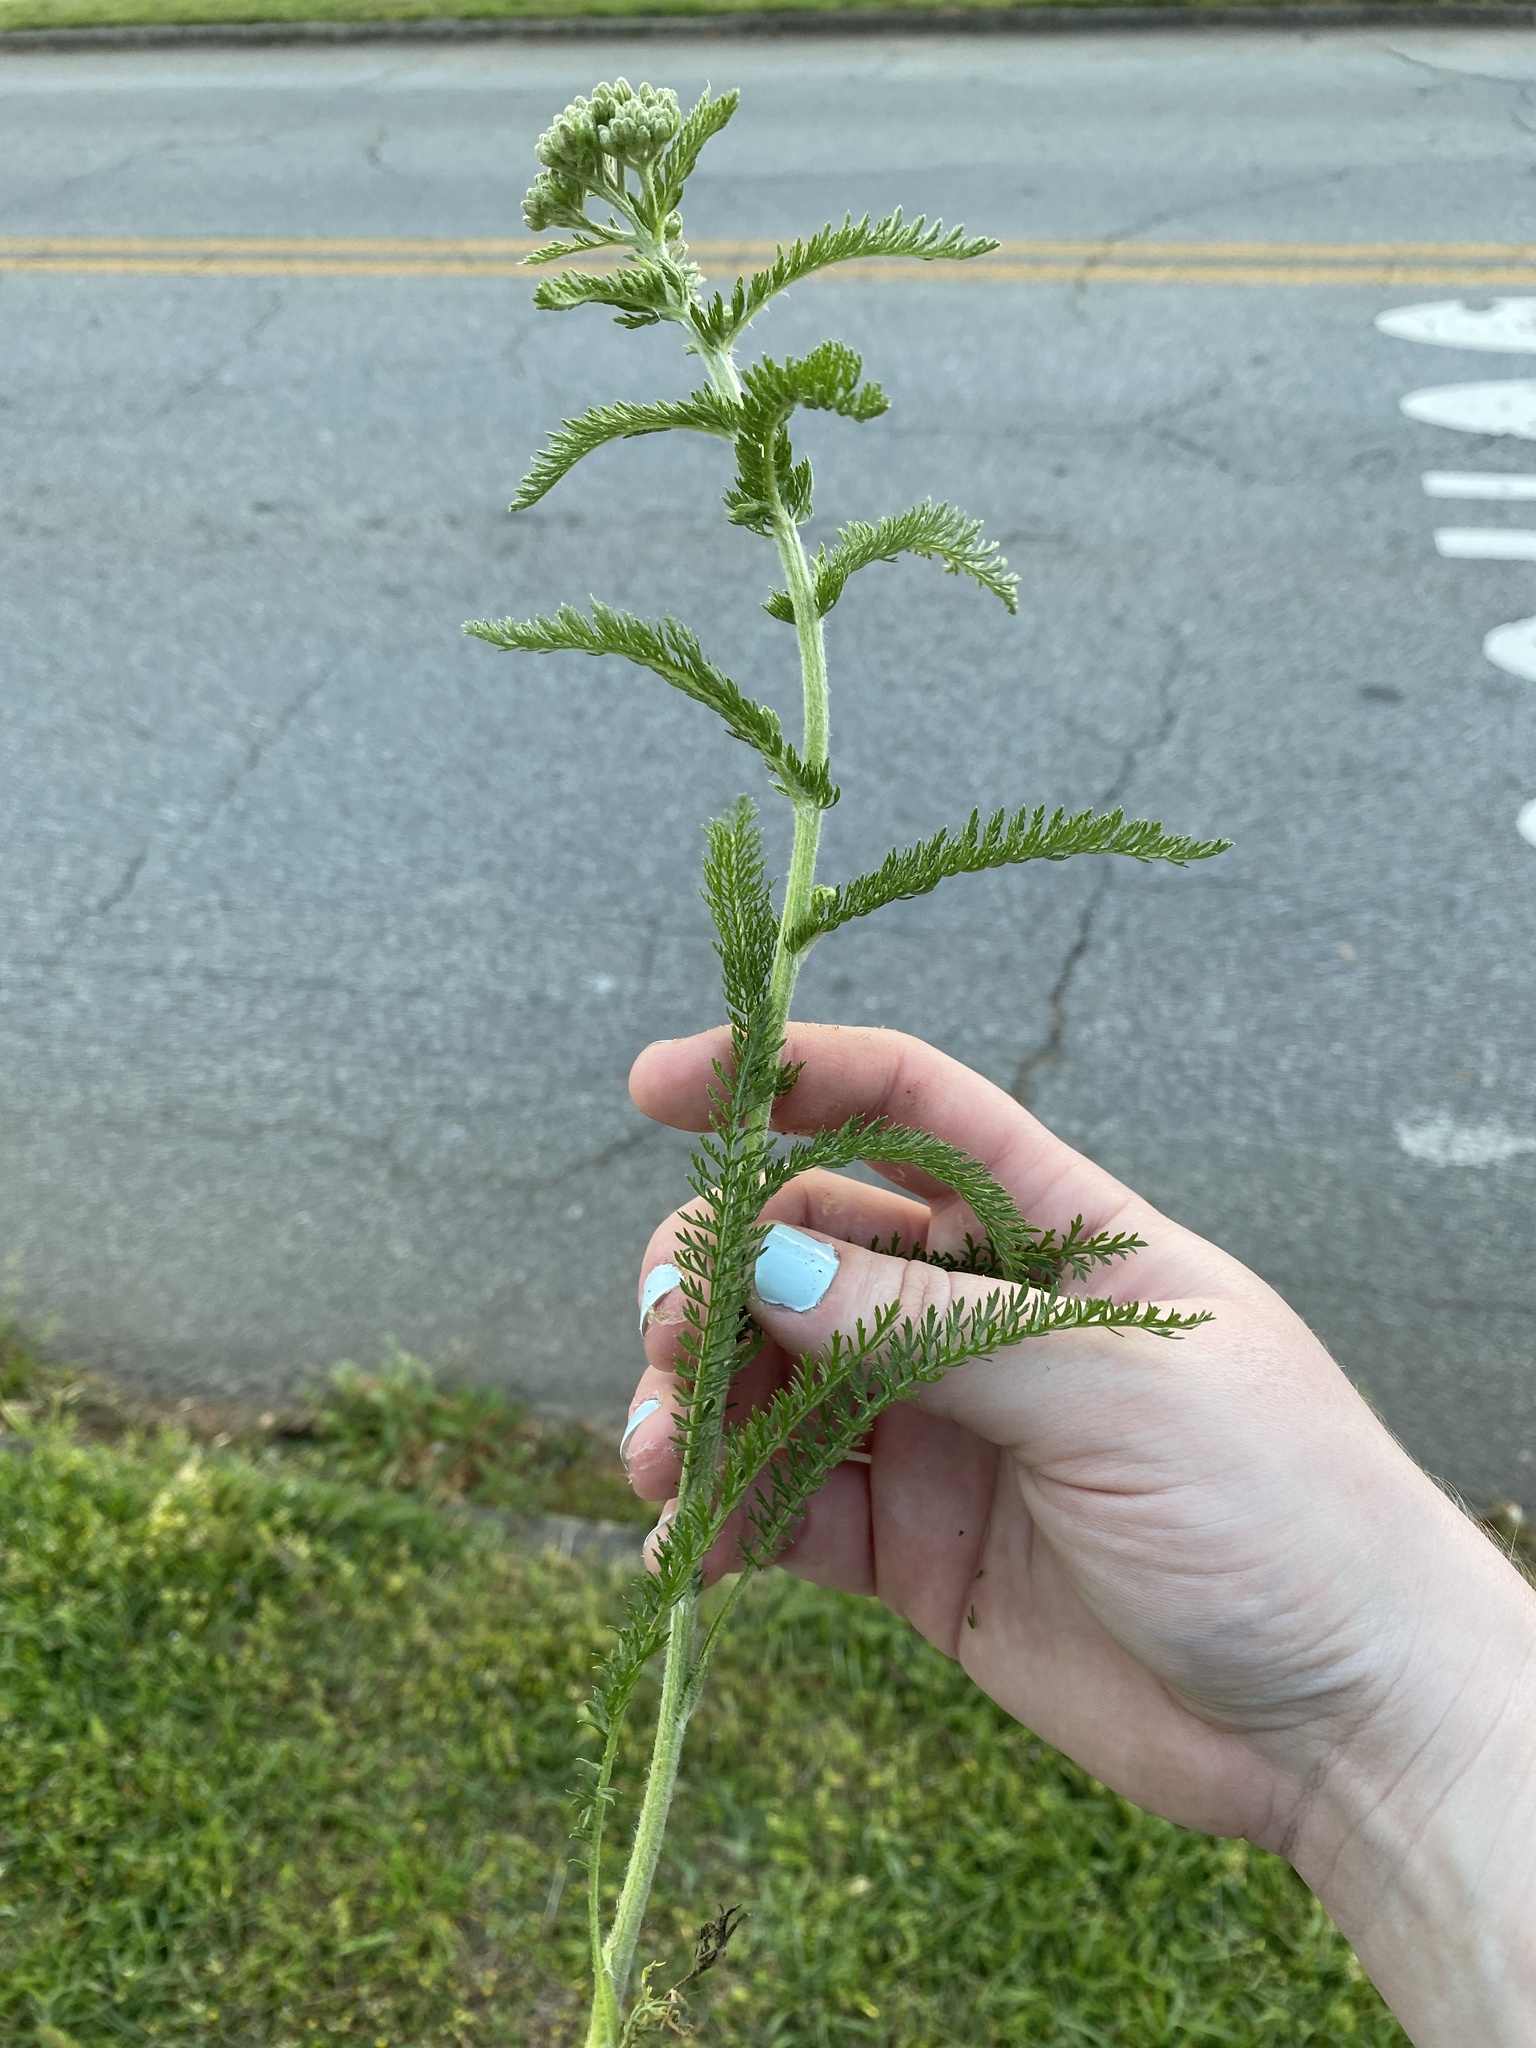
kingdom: Plantae
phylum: Tracheophyta
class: Magnoliopsida
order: Asterales
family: Asteraceae
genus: Achillea
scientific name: Achillea millefolium
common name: Yarrow
